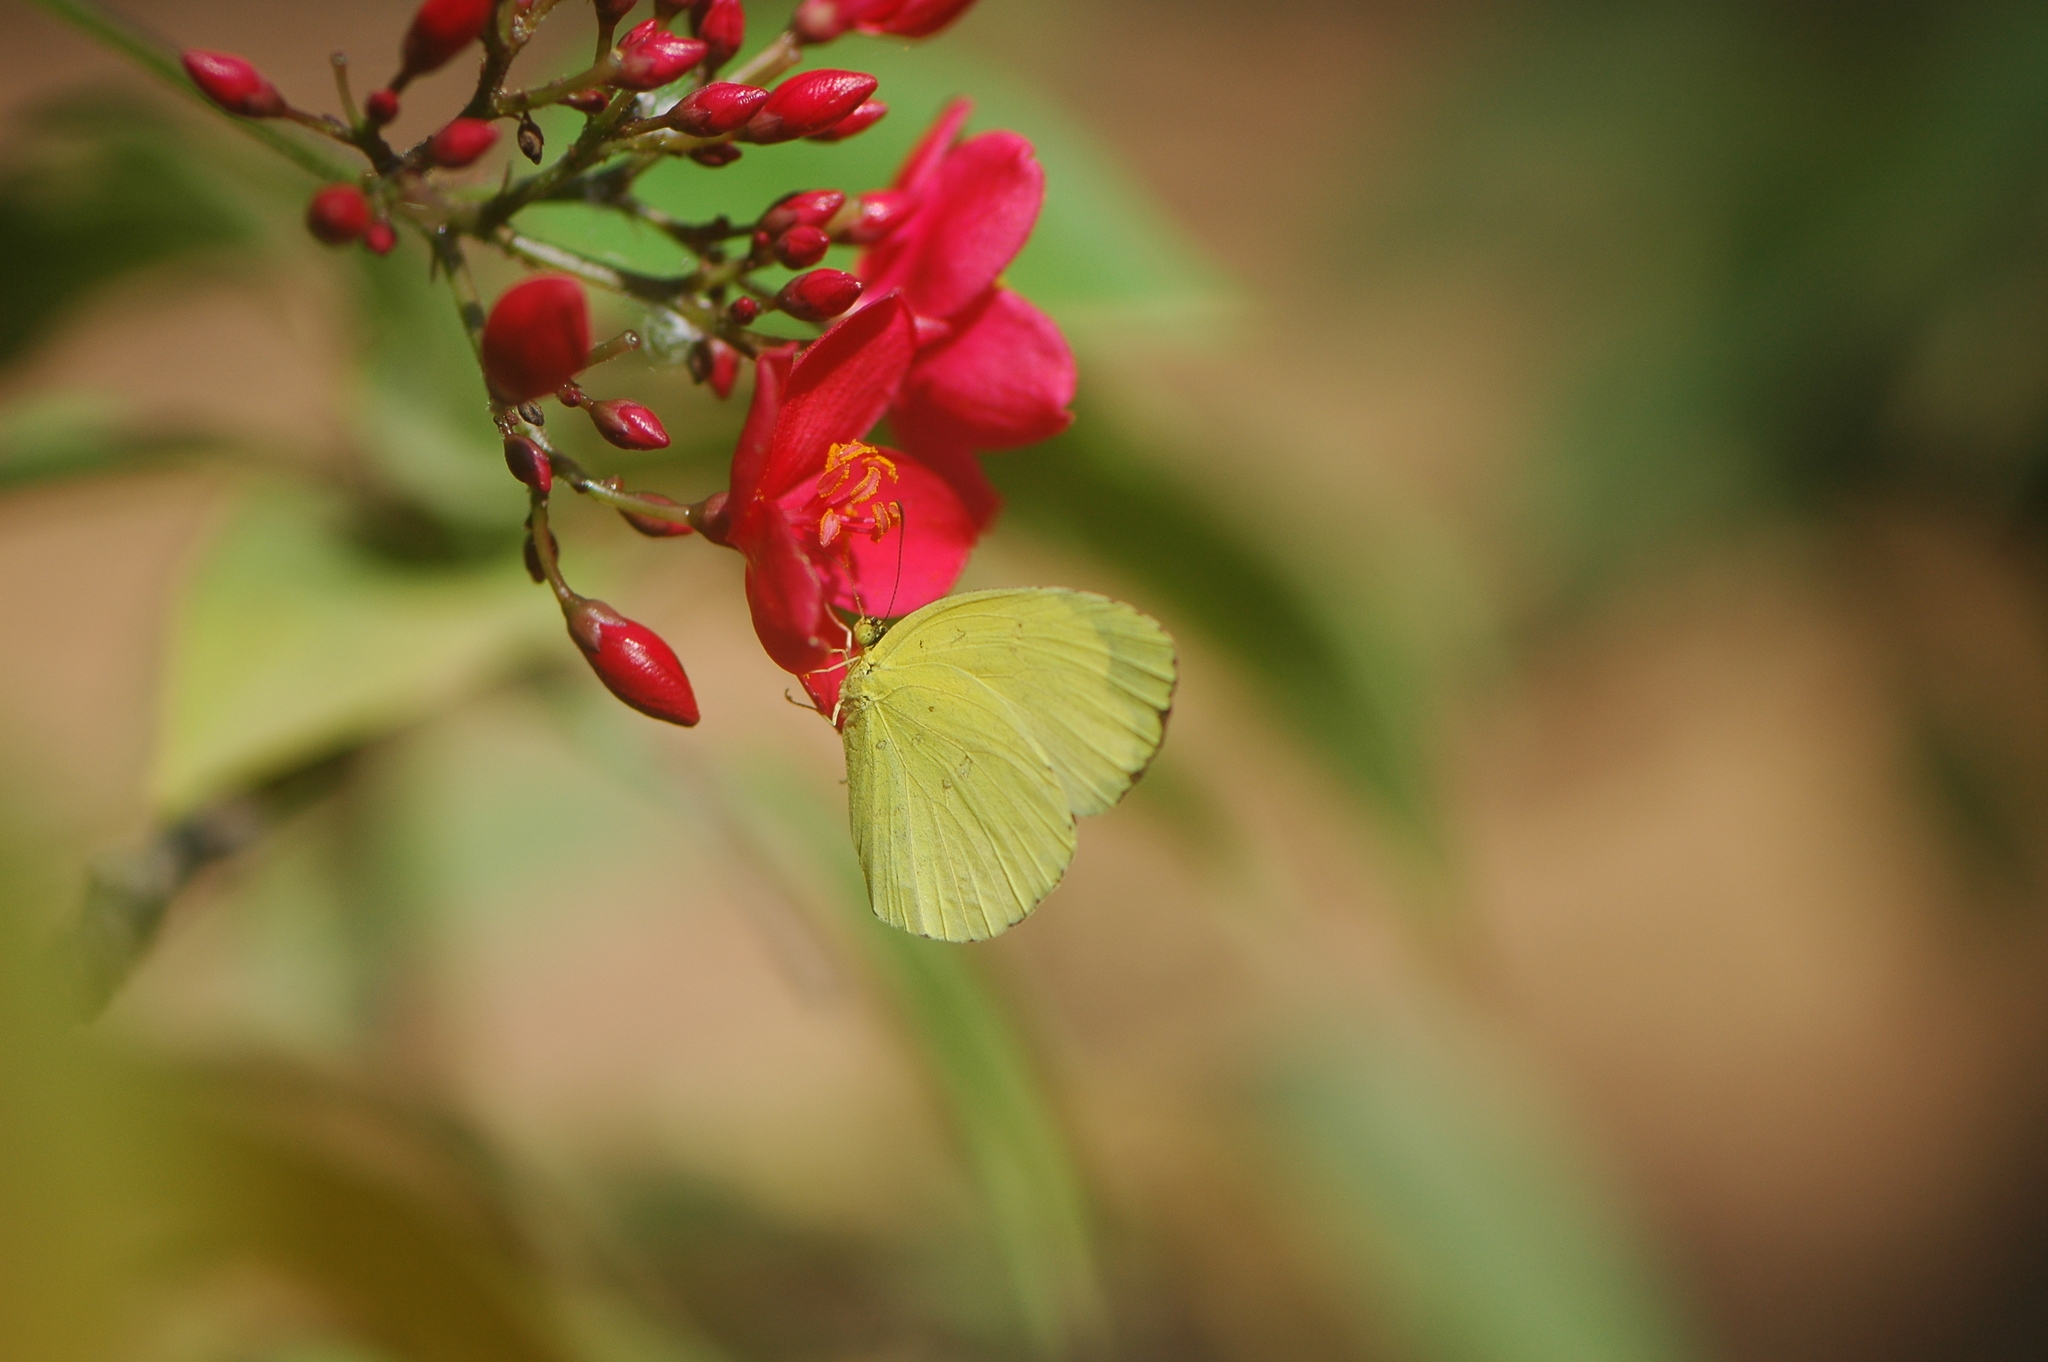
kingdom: Animalia
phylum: Arthropoda
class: Insecta
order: Lepidoptera
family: Pieridae
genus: Eurema
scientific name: Eurema senegalensis
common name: Forest grass yellow
